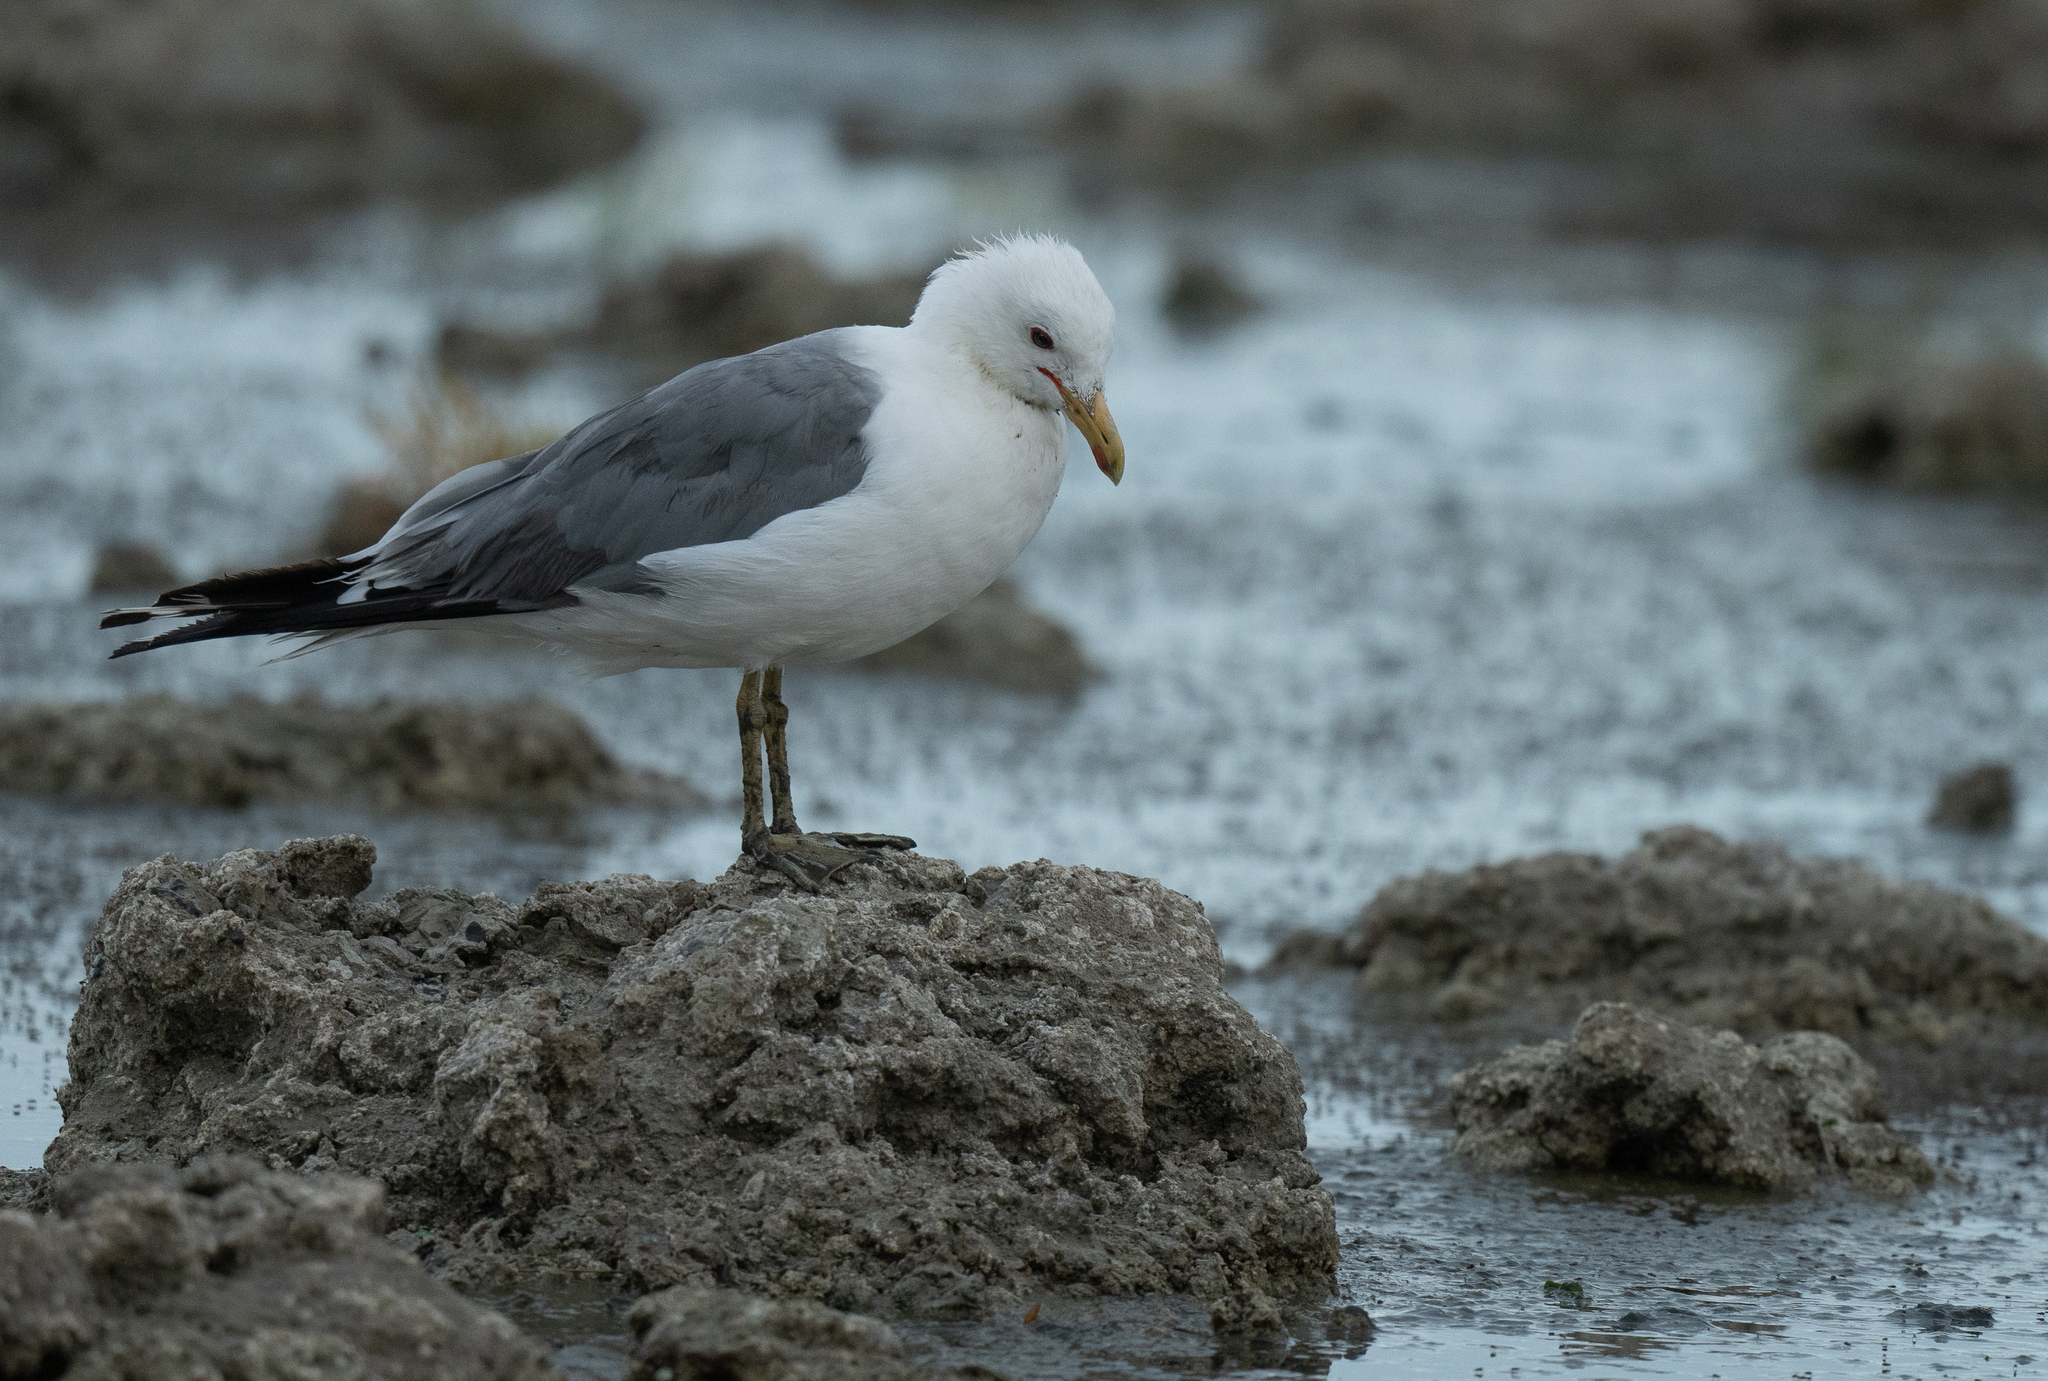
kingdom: Animalia
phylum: Chordata
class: Aves
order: Charadriiformes
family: Laridae
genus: Larus
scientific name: Larus californicus
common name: California gull
